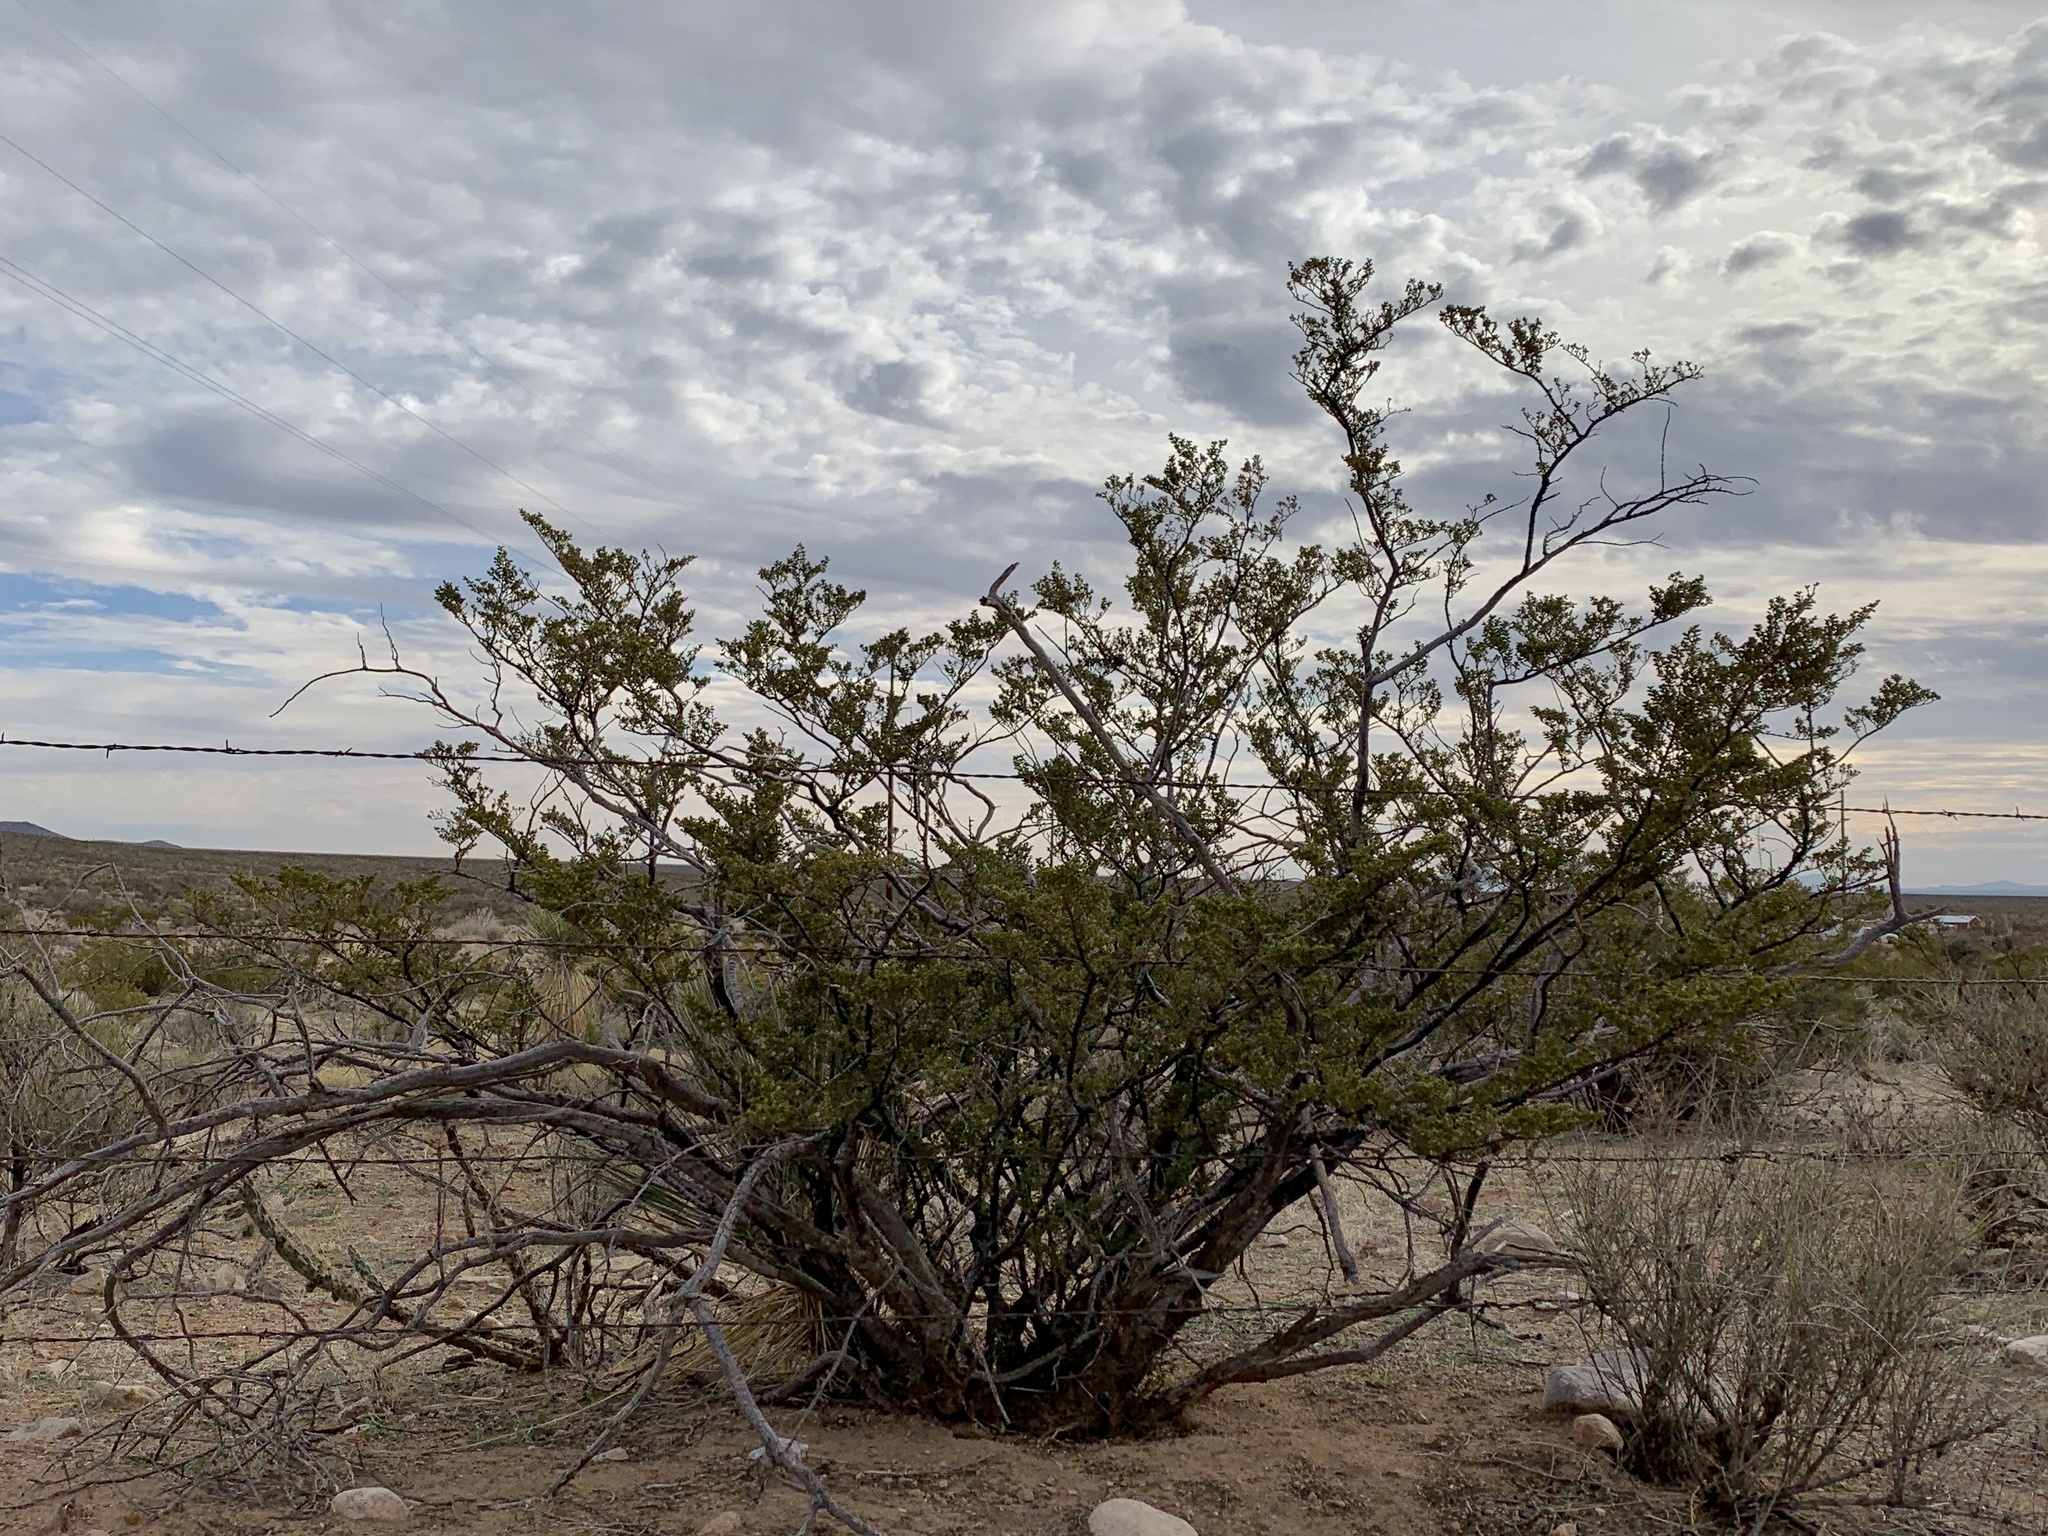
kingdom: Plantae
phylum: Tracheophyta
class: Magnoliopsida
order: Zygophyllales
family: Zygophyllaceae
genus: Larrea
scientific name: Larrea tridentata
